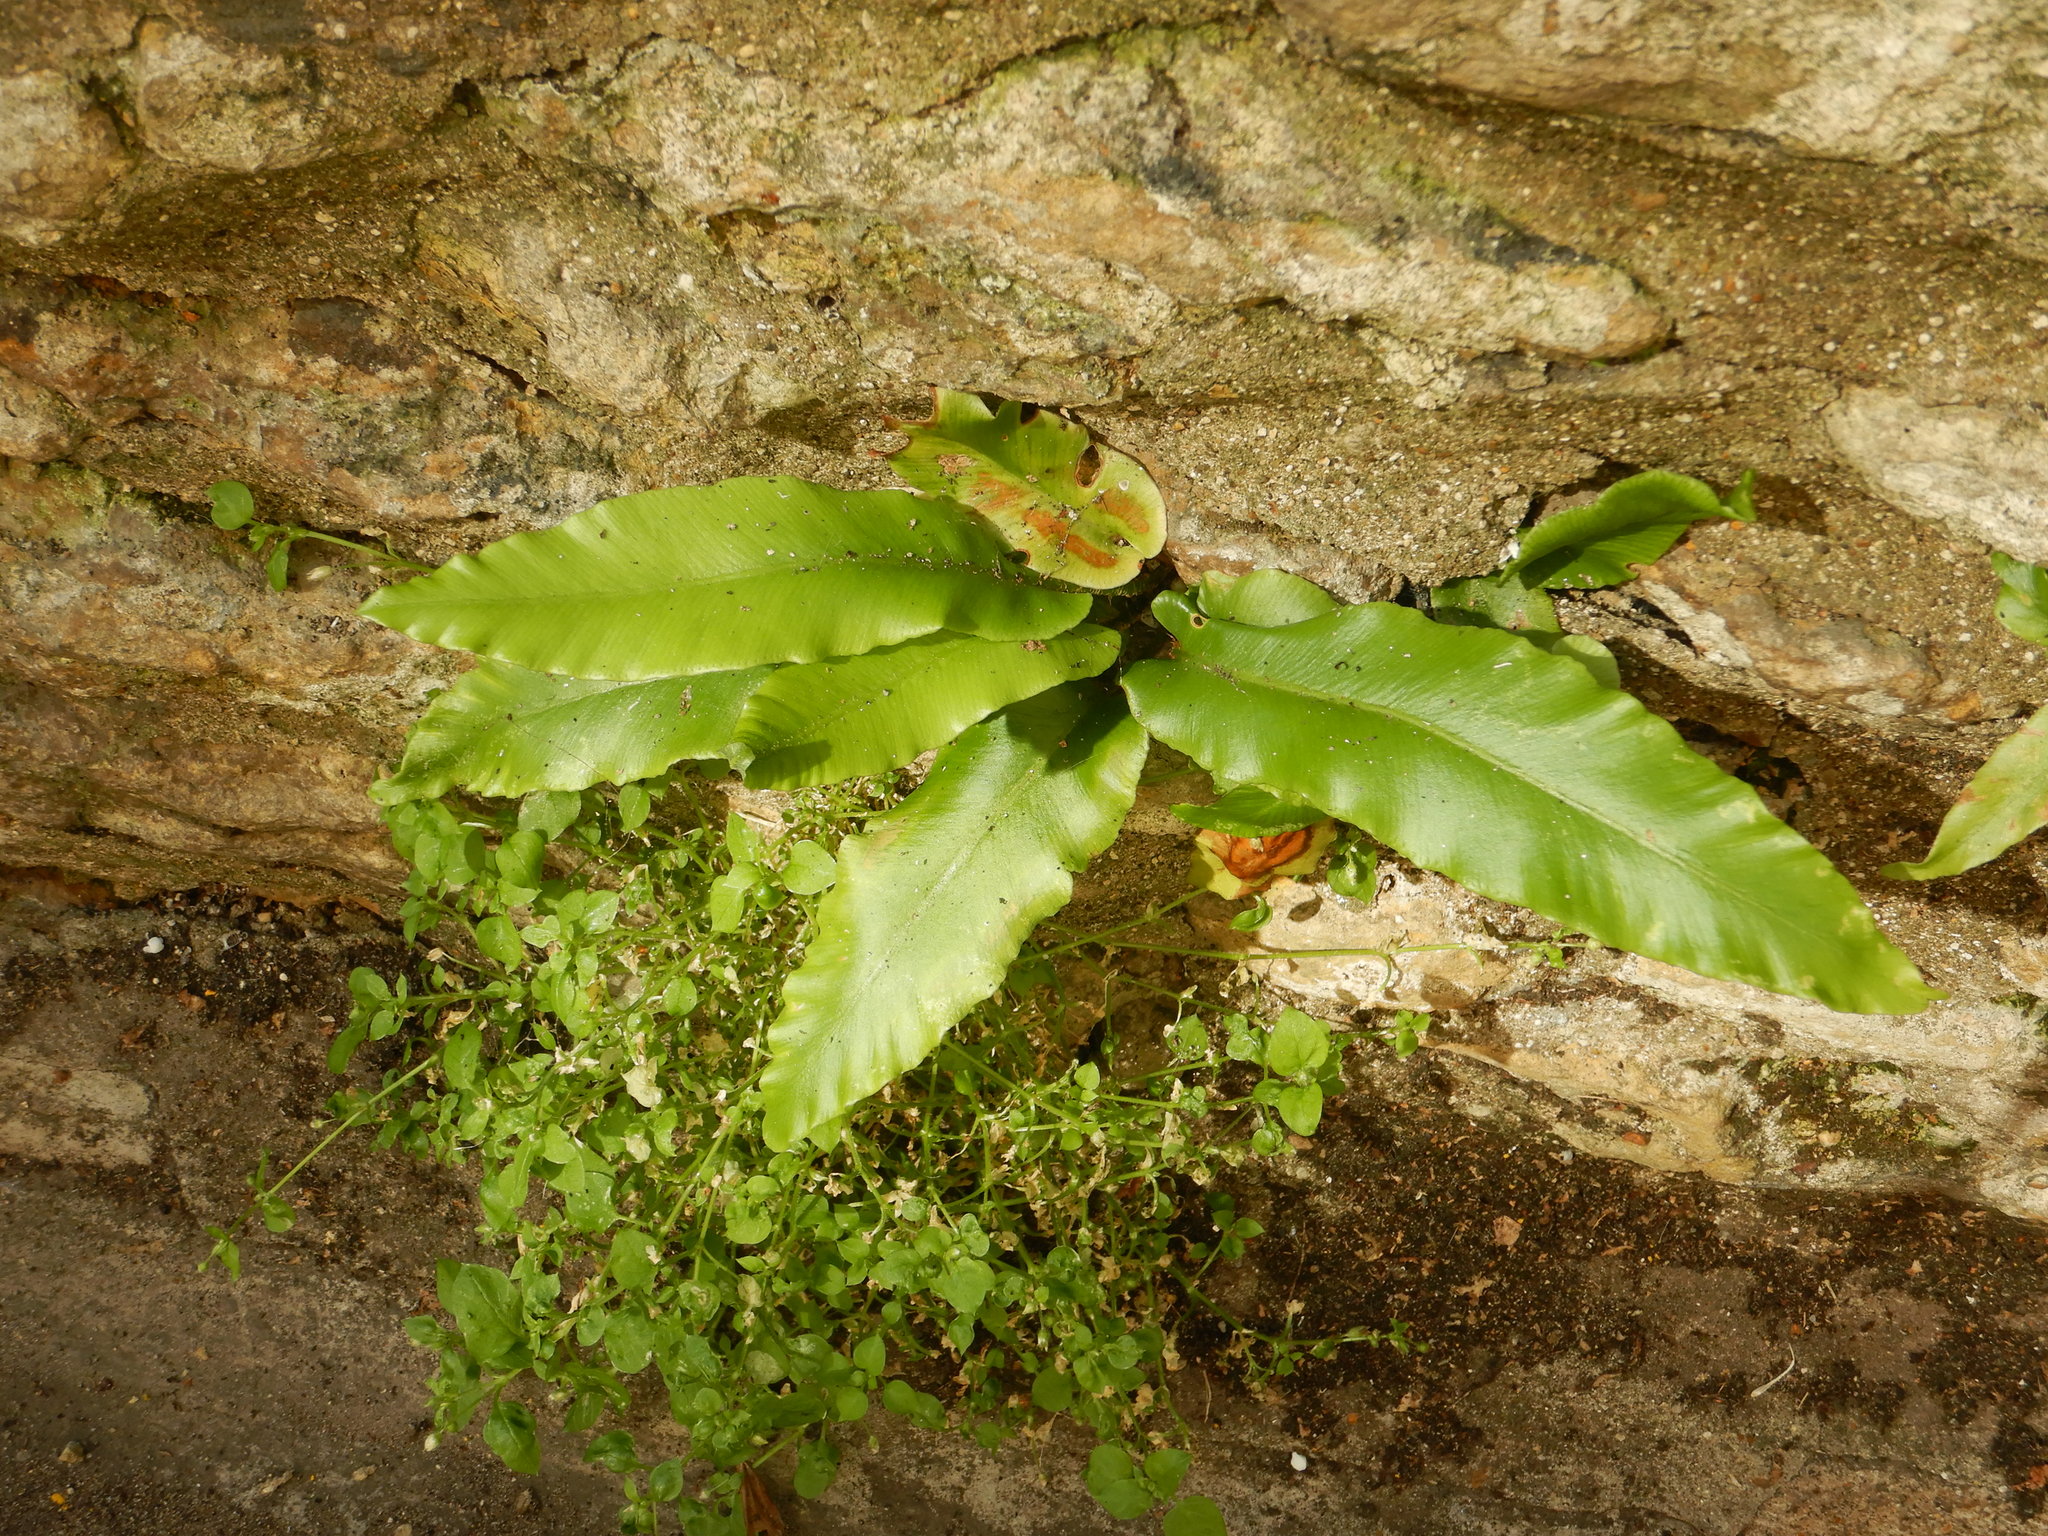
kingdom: Plantae
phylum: Tracheophyta
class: Polypodiopsida
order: Polypodiales
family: Aspleniaceae
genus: Asplenium
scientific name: Asplenium scolopendrium
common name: Hart's-tongue fern
